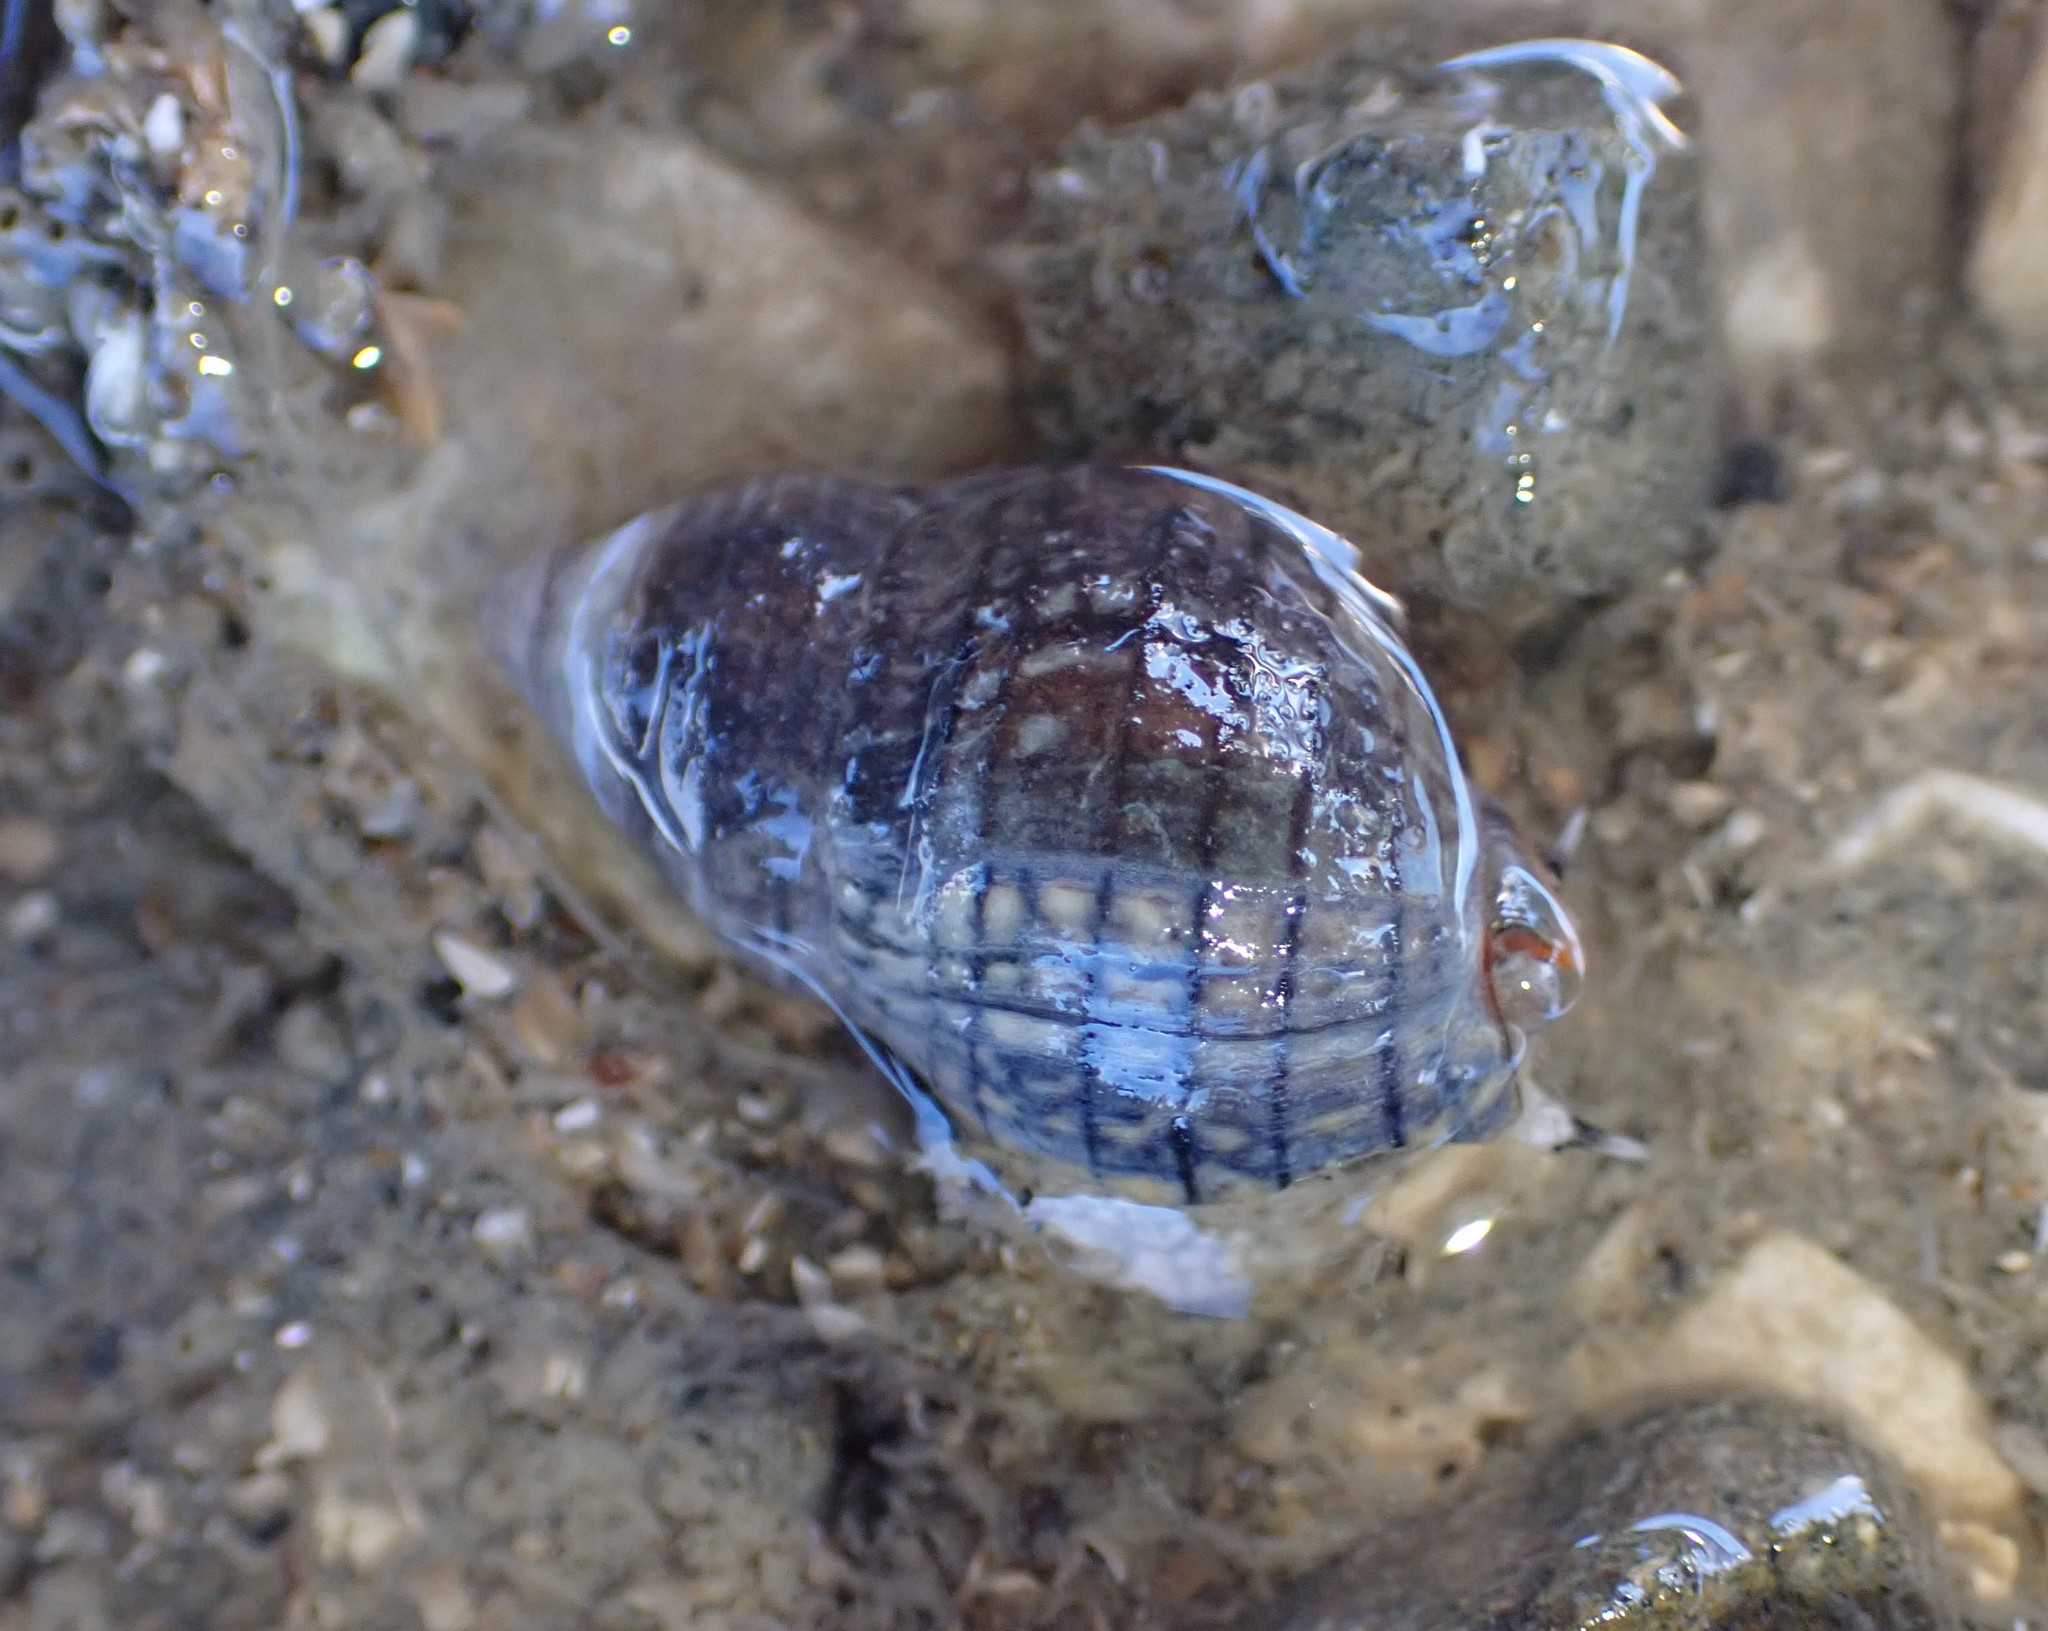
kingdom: Animalia
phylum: Mollusca
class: Gastropoda
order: Neogastropoda
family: Cominellidae
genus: Cominella
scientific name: Cominella virgata
